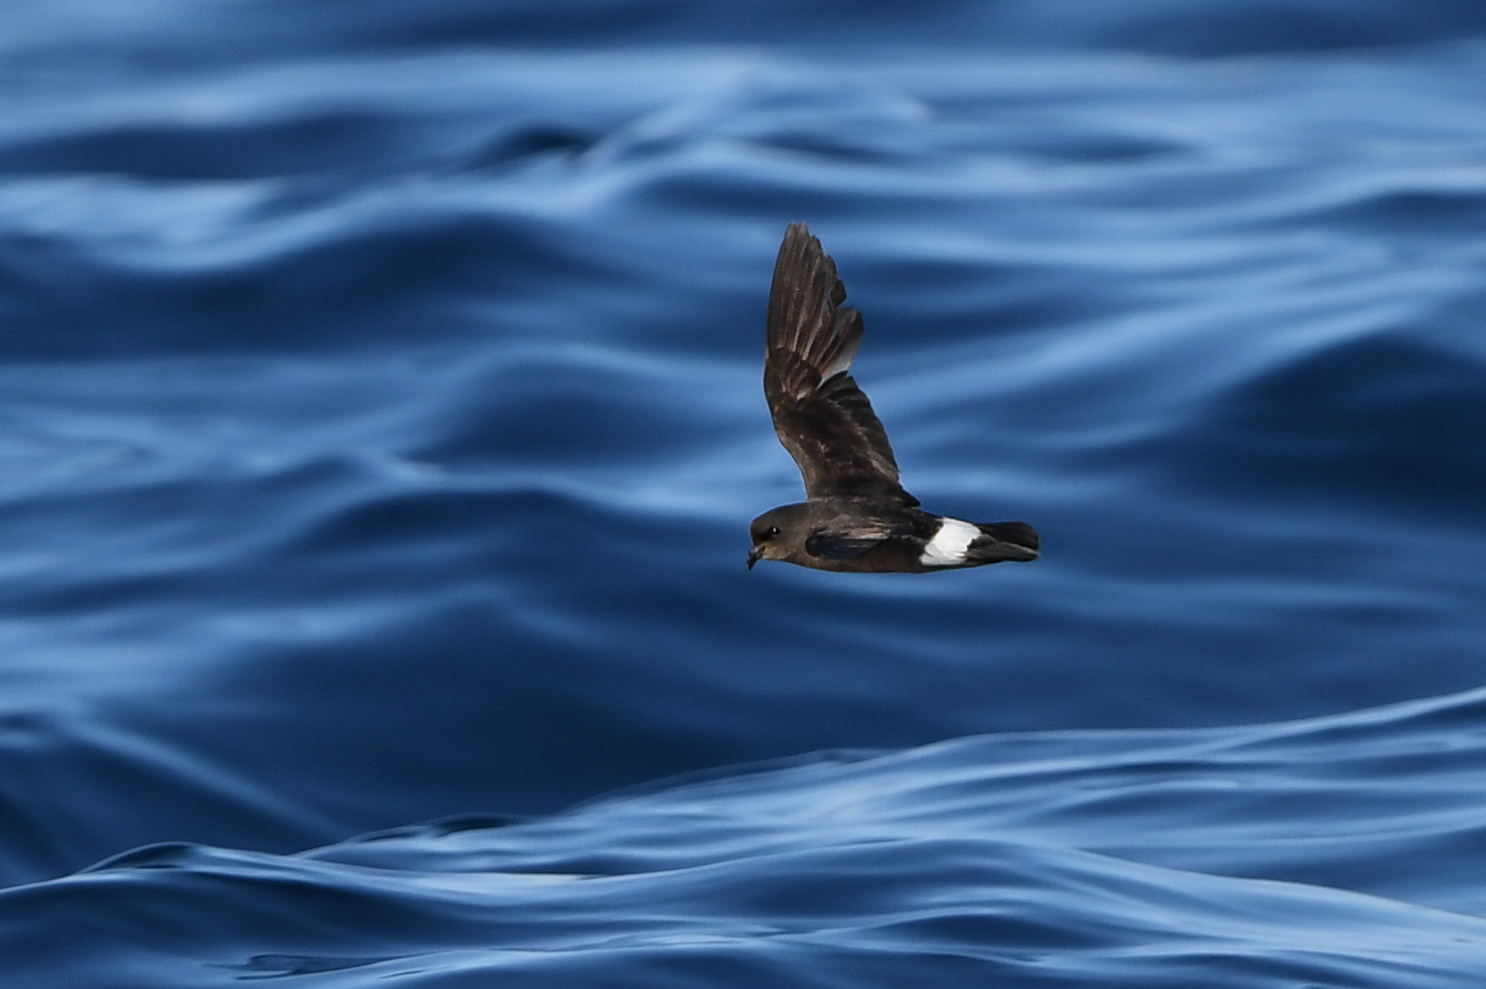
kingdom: Animalia
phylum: Chordata
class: Aves
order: Procellariiformes
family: Hydrobatidae
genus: Hydrobates
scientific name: Hydrobates pelagicus
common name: European storm-petrel
